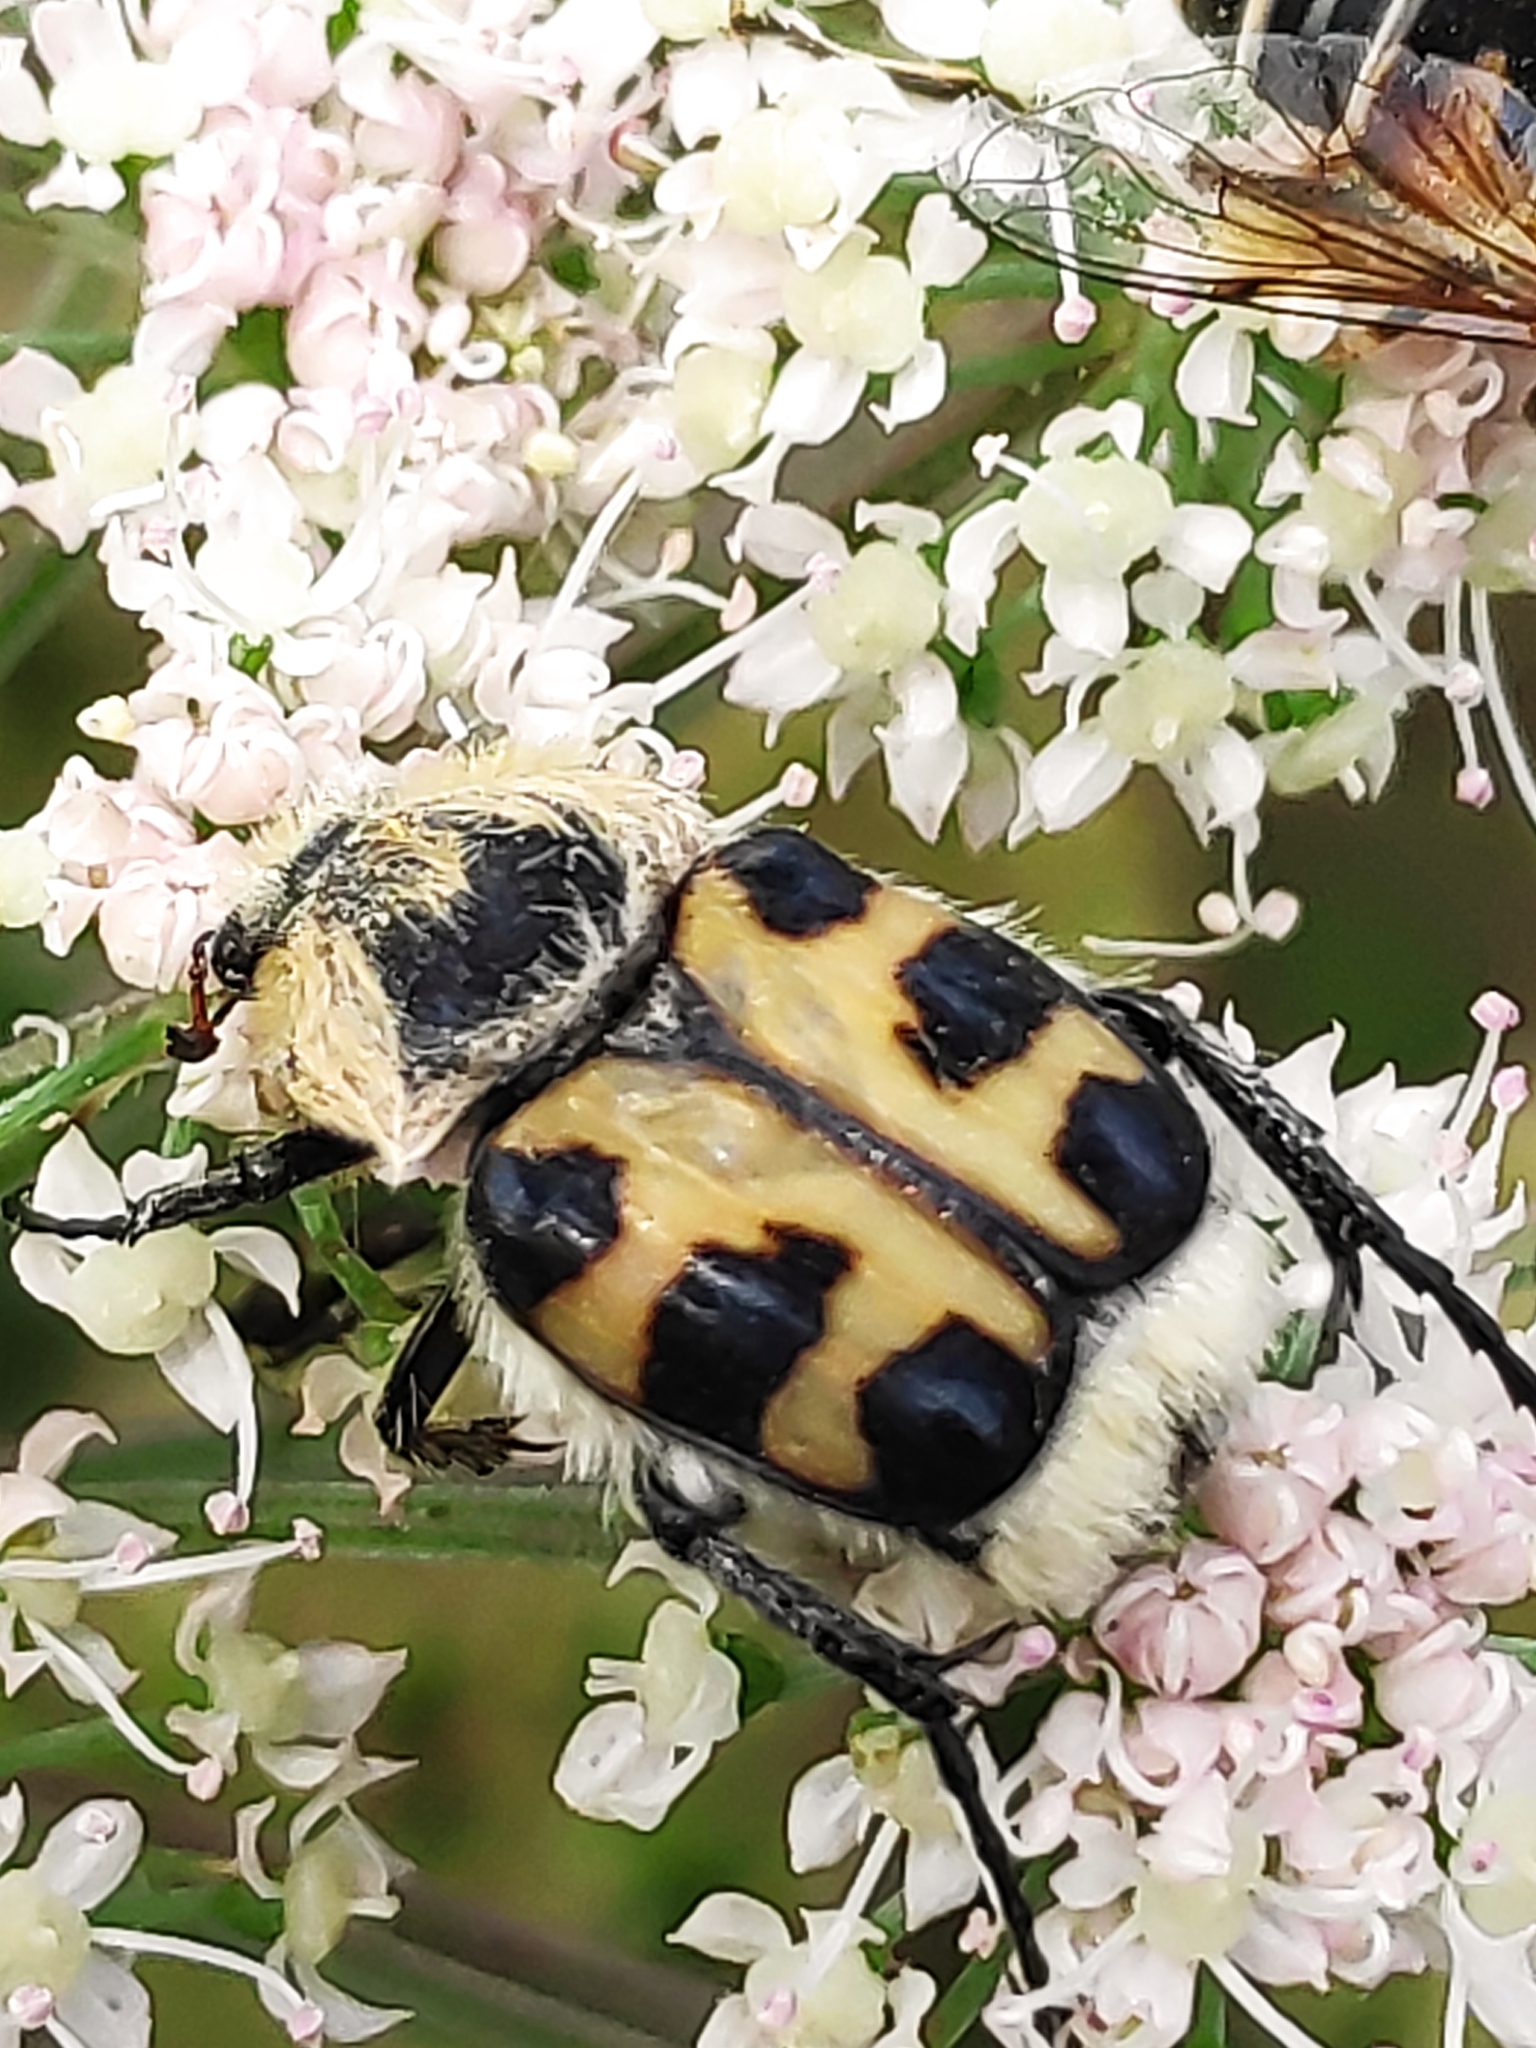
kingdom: Animalia
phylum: Arthropoda
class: Insecta
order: Coleoptera
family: Scarabaeidae
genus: Trichius
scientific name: Trichius gallicus
